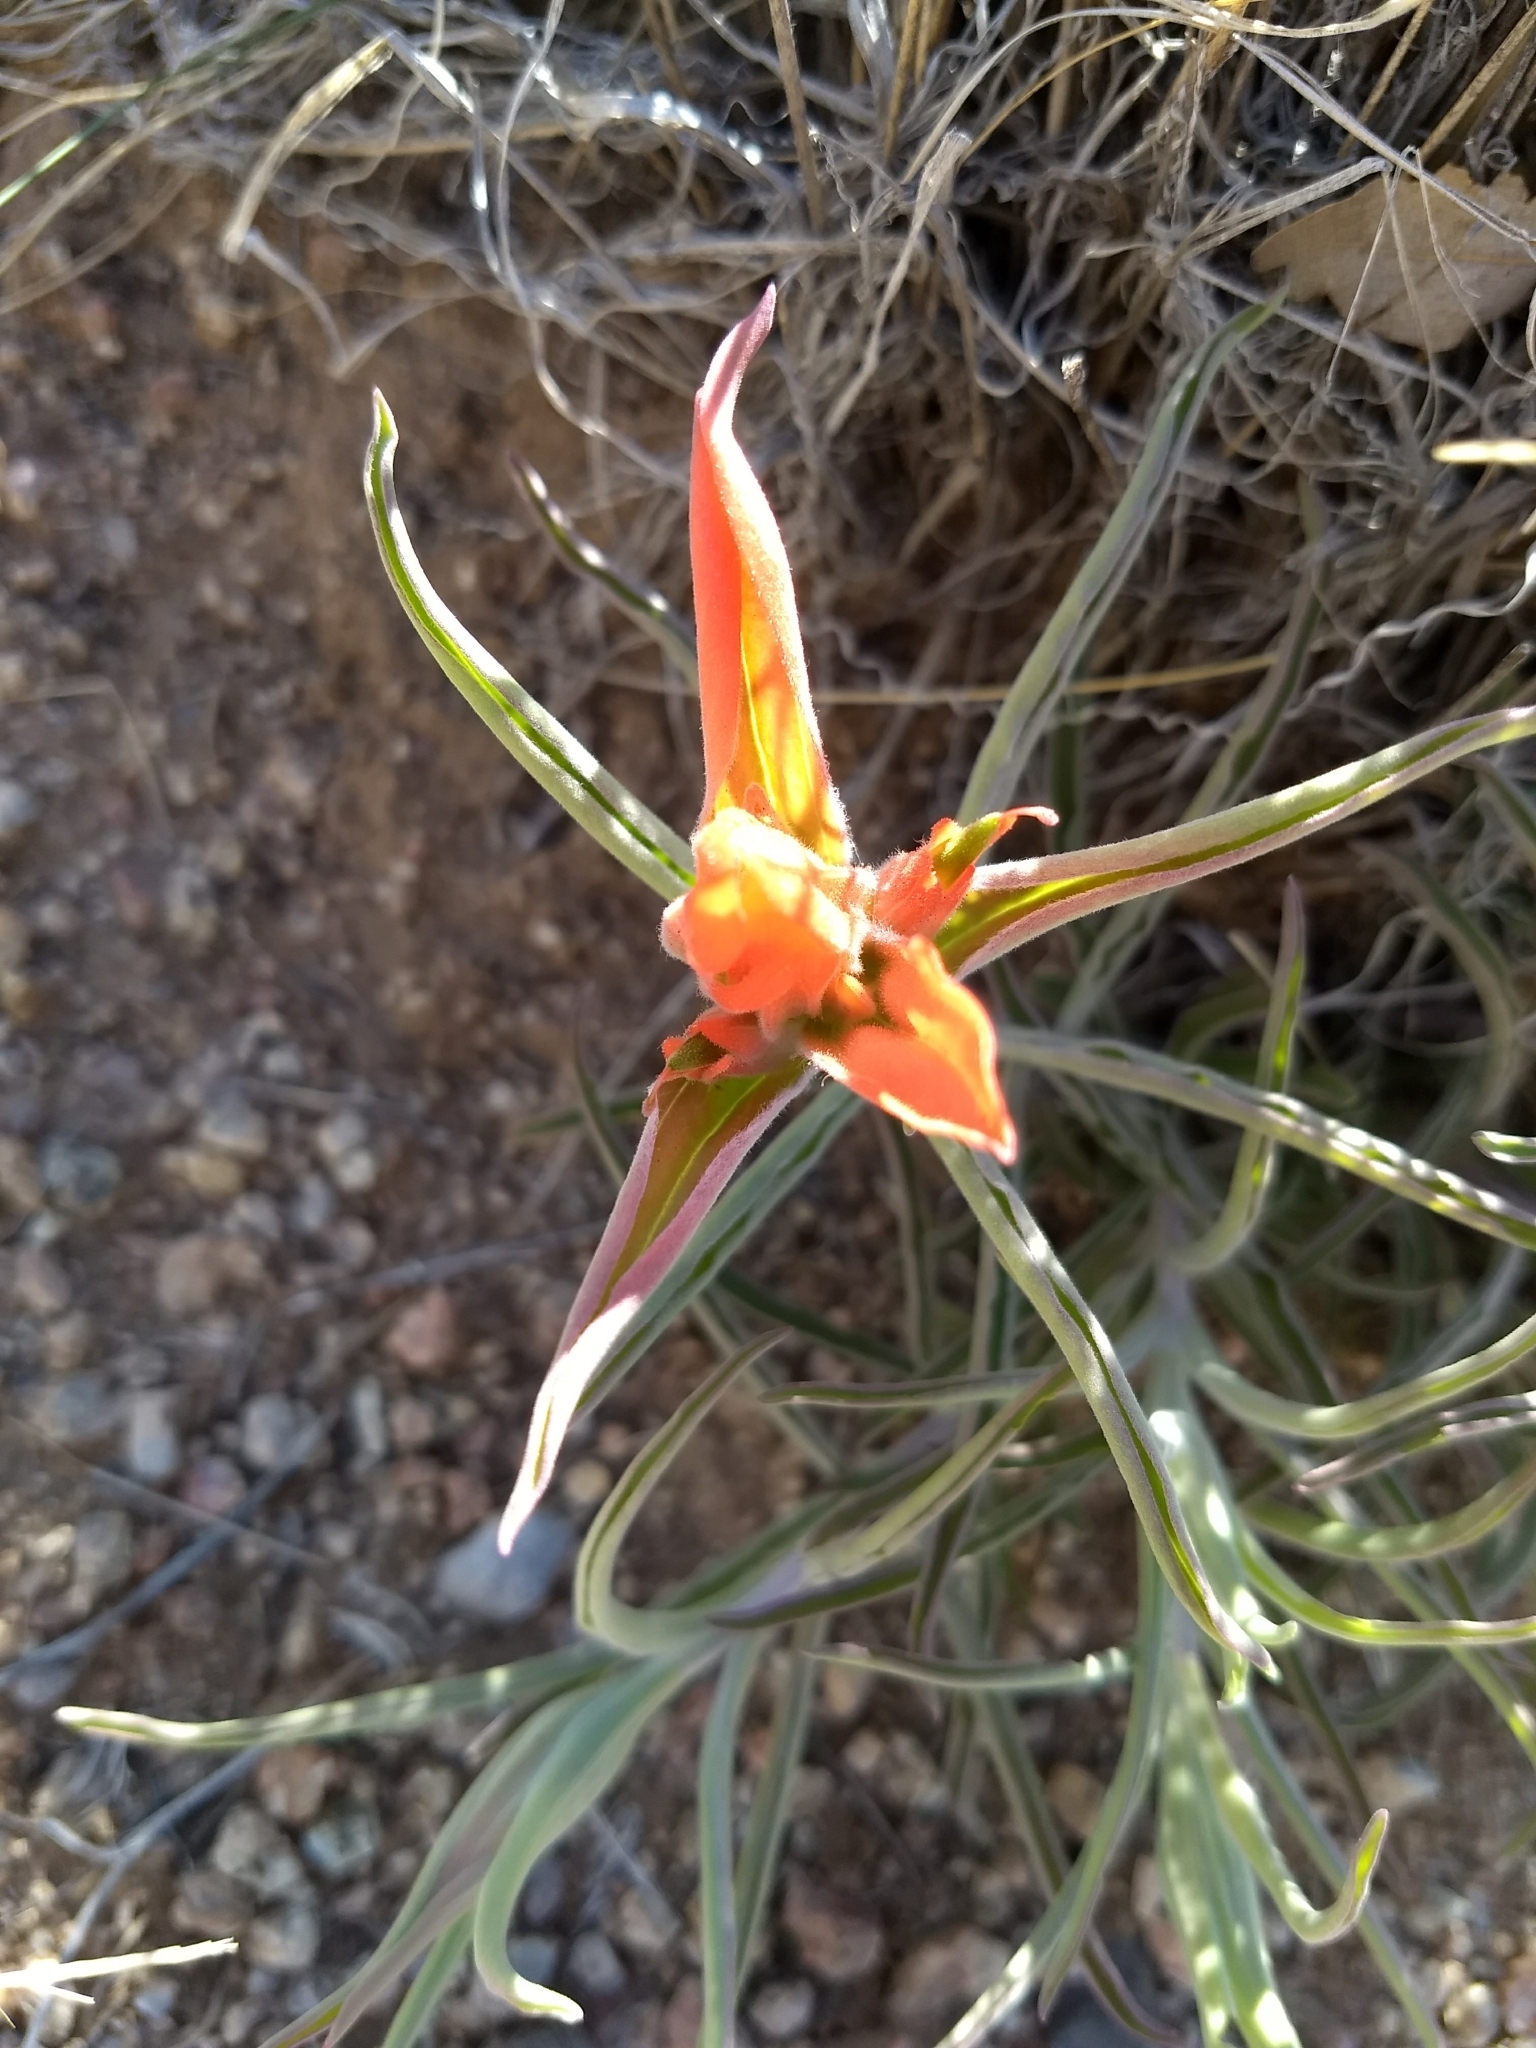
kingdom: Plantae
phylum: Tracheophyta
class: Magnoliopsida
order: Lamiales
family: Orobanchaceae
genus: Castilleja
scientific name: Castilleja integra
